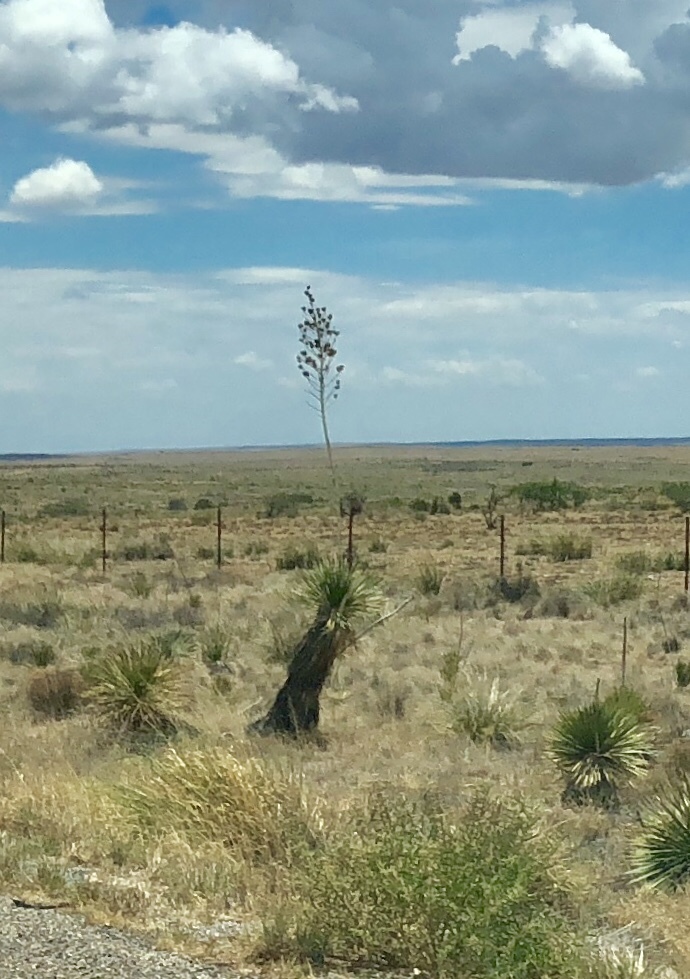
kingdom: Plantae
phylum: Tracheophyta
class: Liliopsida
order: Asparagales
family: Asparagaceae
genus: Yucca
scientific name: Yucca elata
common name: Palmella
